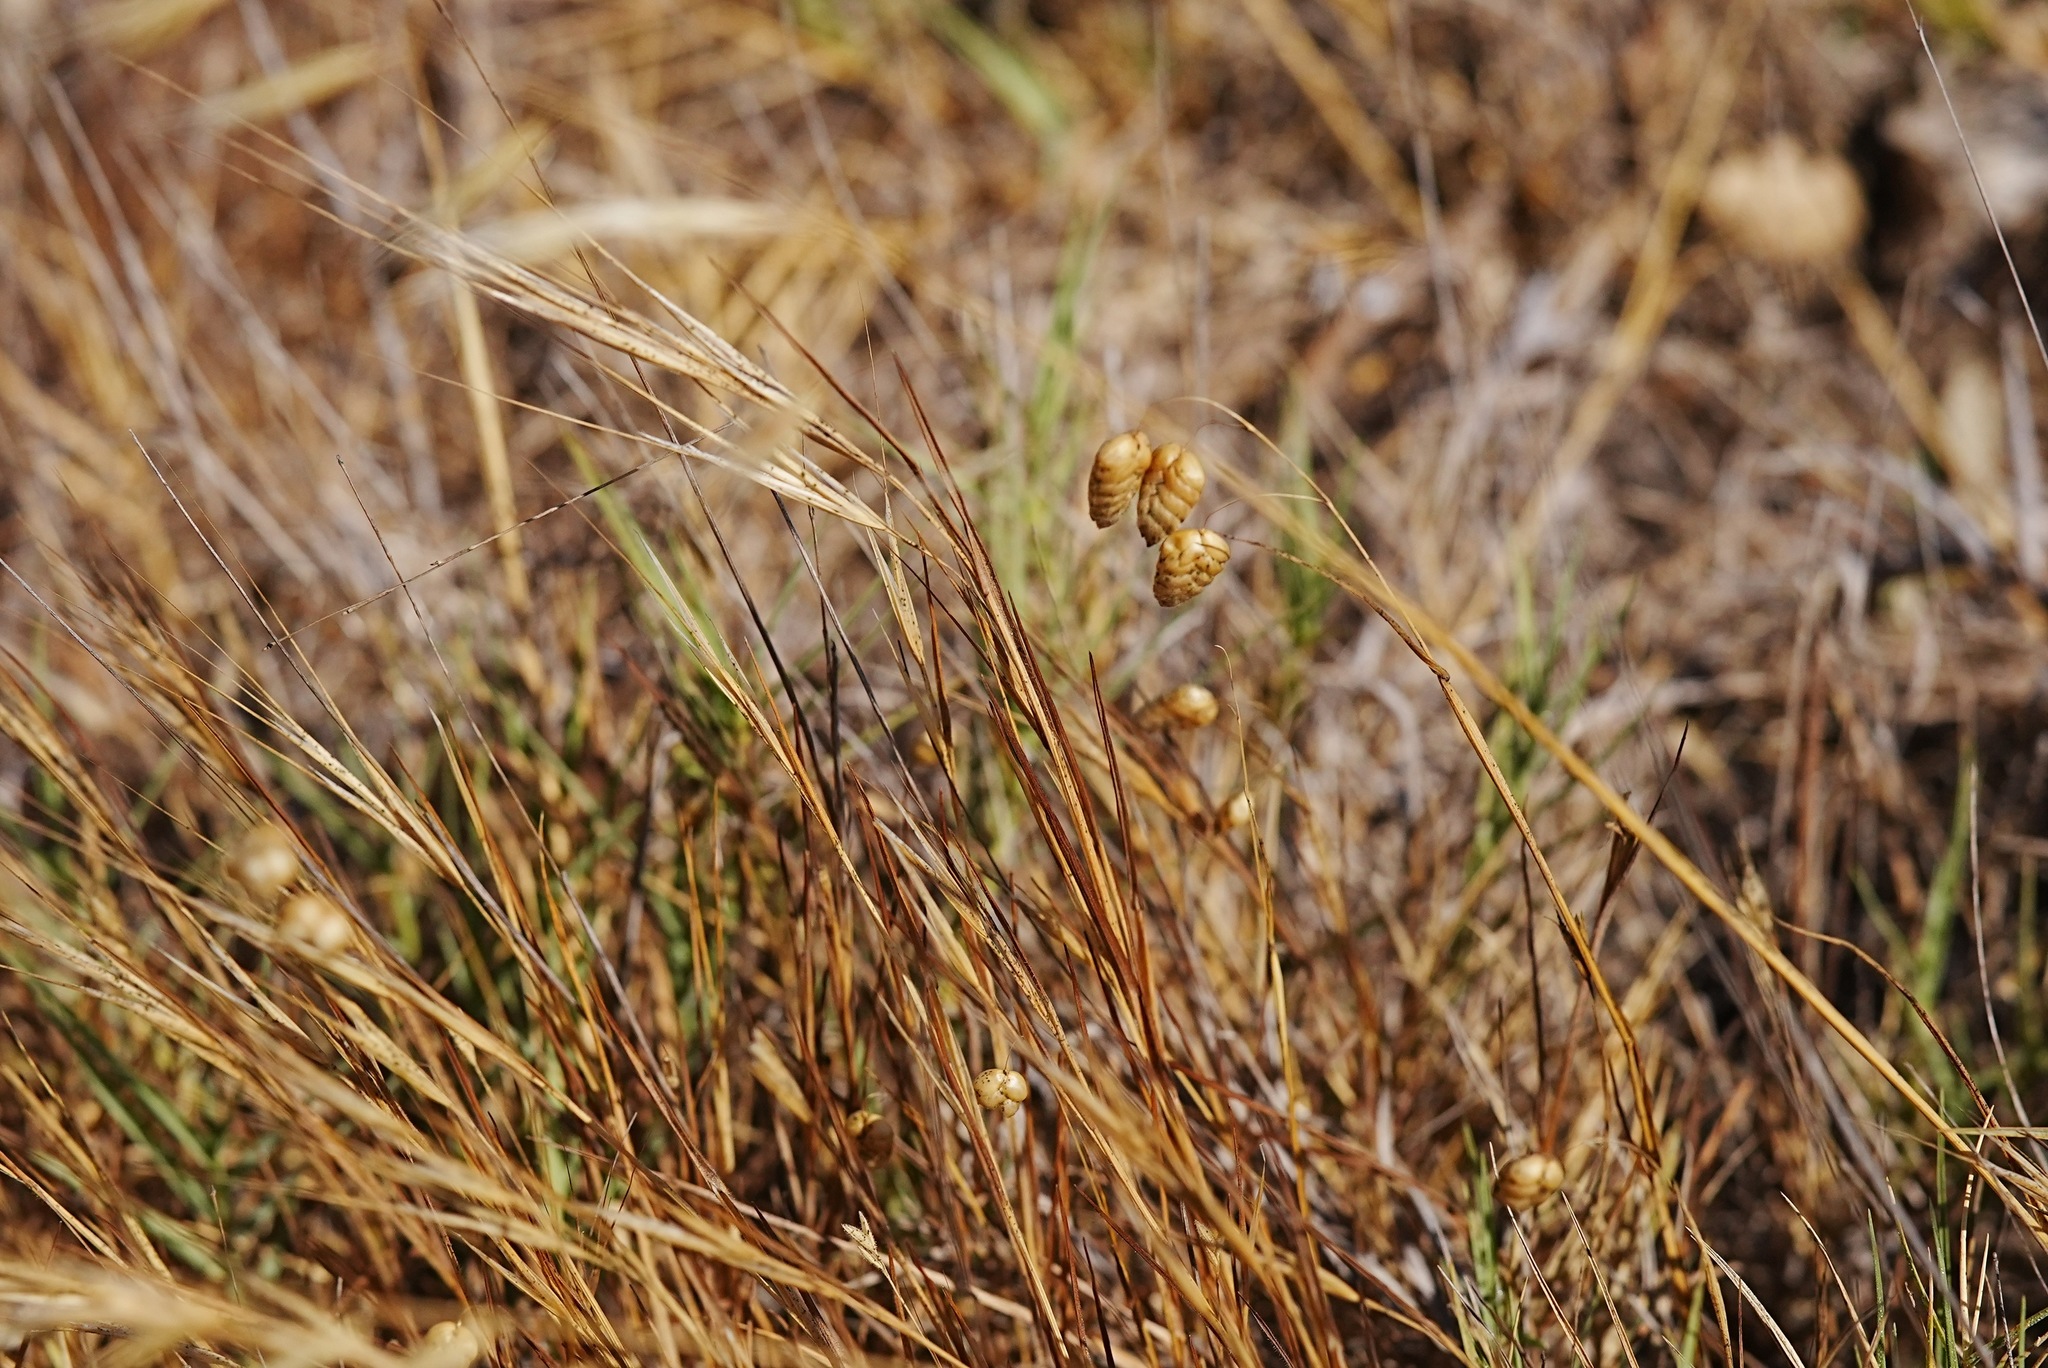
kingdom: Plantae
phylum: Tracheophyta
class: Liliopsida
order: Poales
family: Poaceae
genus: Briza
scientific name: Briza maxima
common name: Big quakinggrass
